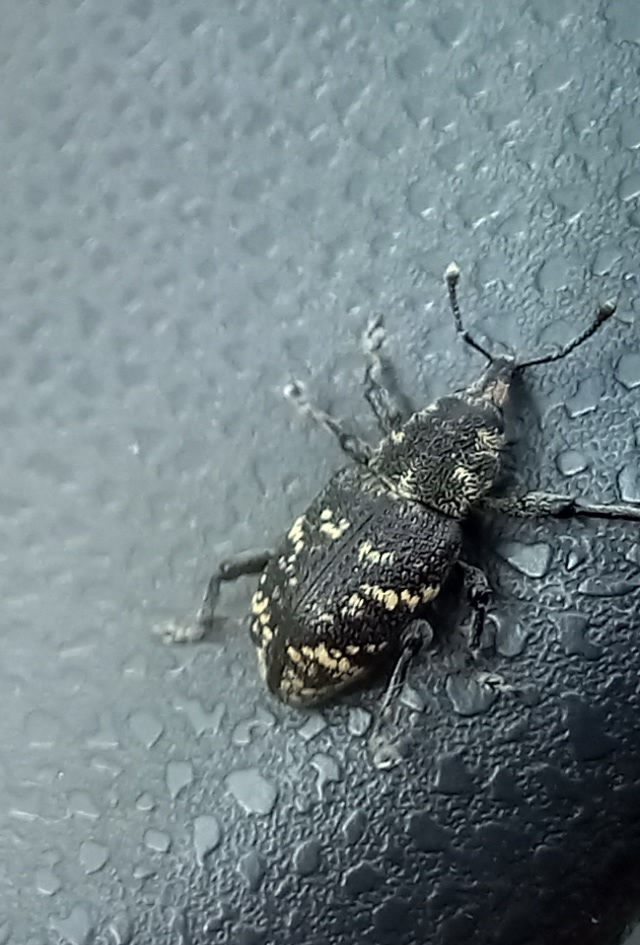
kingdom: Animalia
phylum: Arthropoda
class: Insecta
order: Coleoptera
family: Curculionidae
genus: Hylobius
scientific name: Hylobius abietis
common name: Large pine weevil
